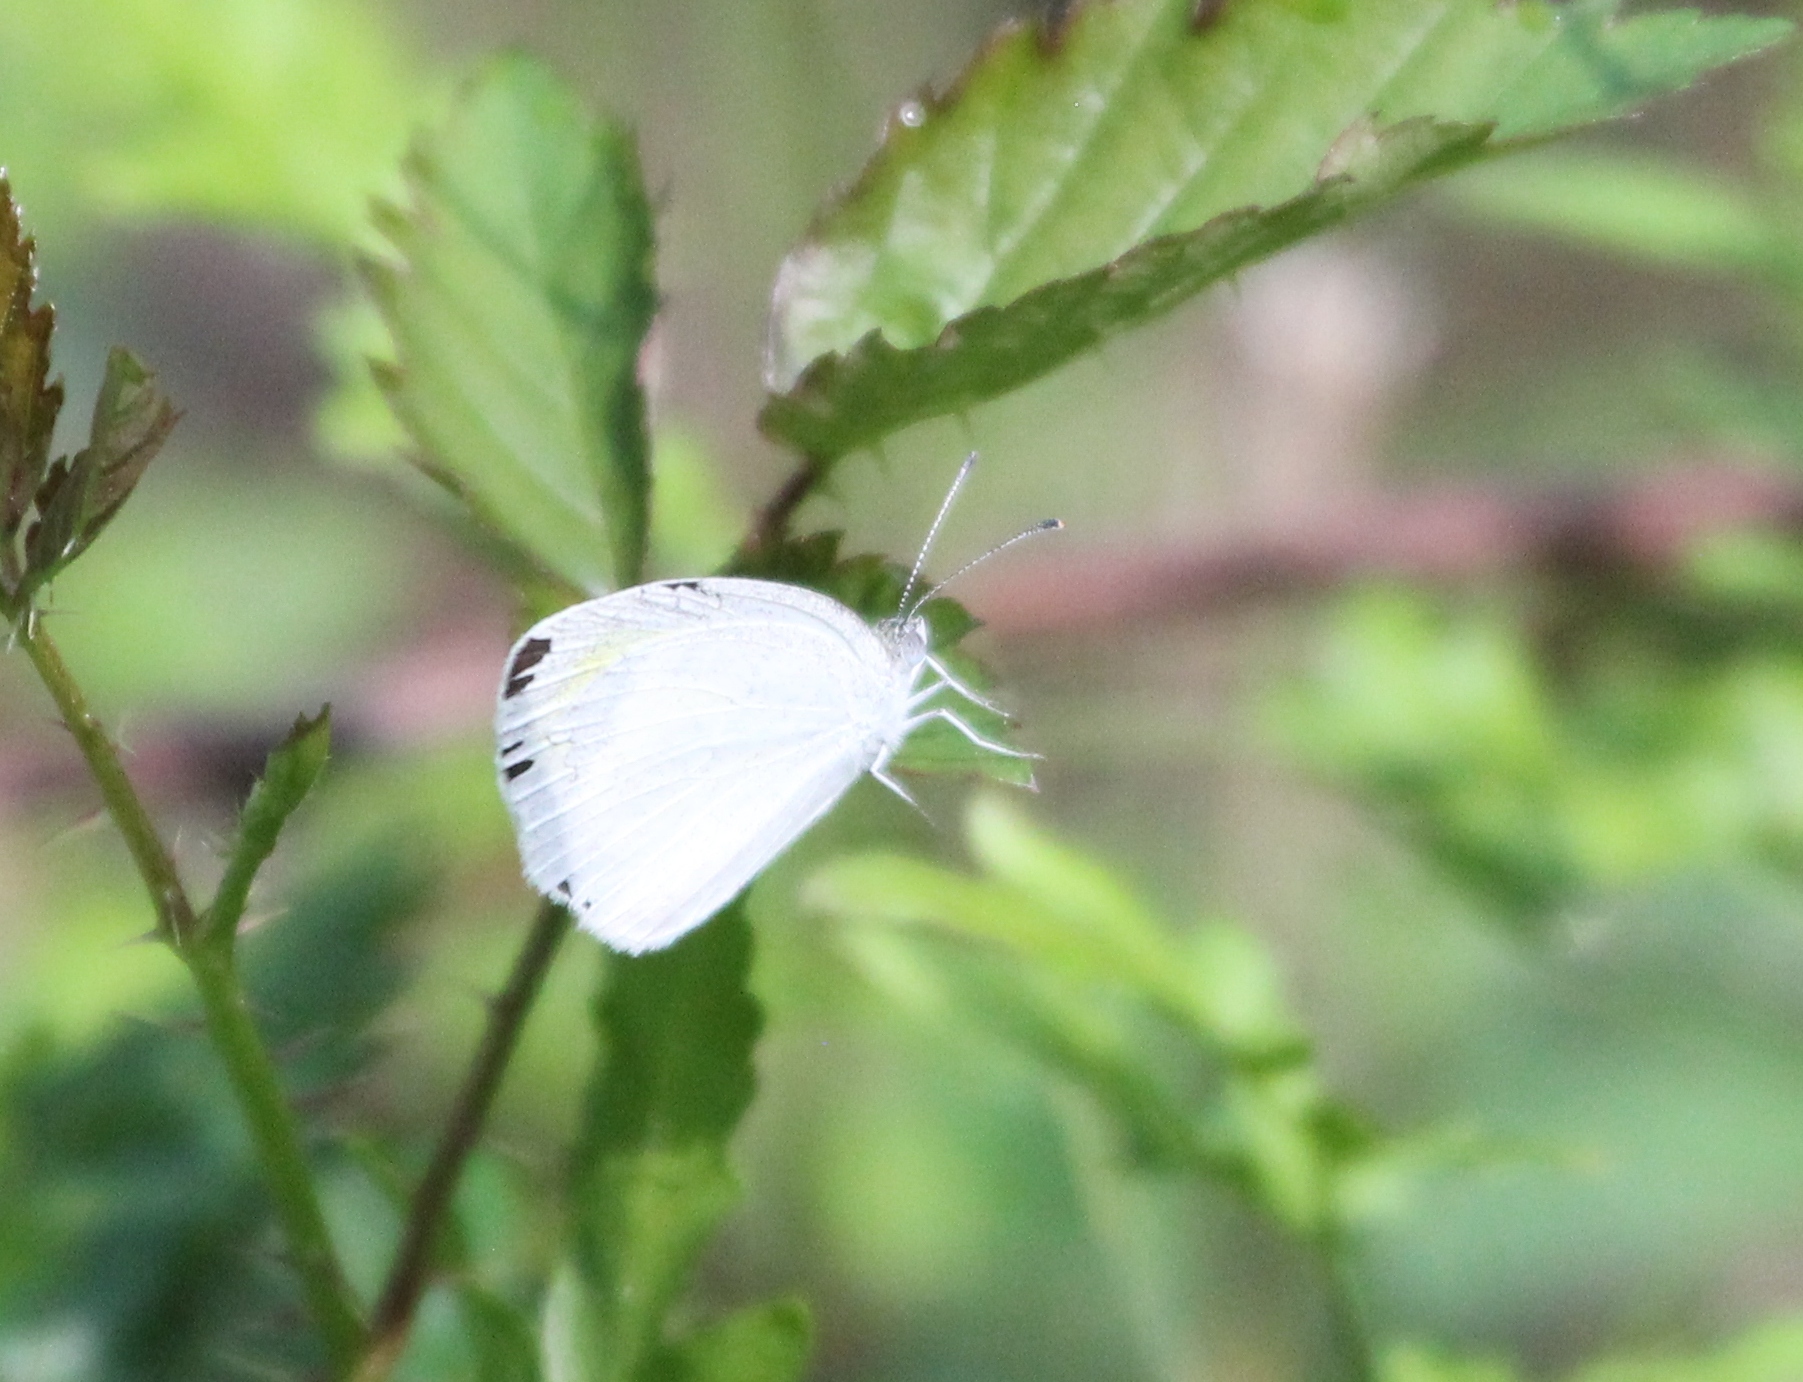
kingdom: Animalia
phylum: Arthropoda
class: Insecta
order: Lepidoptera
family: Pieridae
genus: Eurema
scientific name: Eurema daira
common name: Barred sulphur
